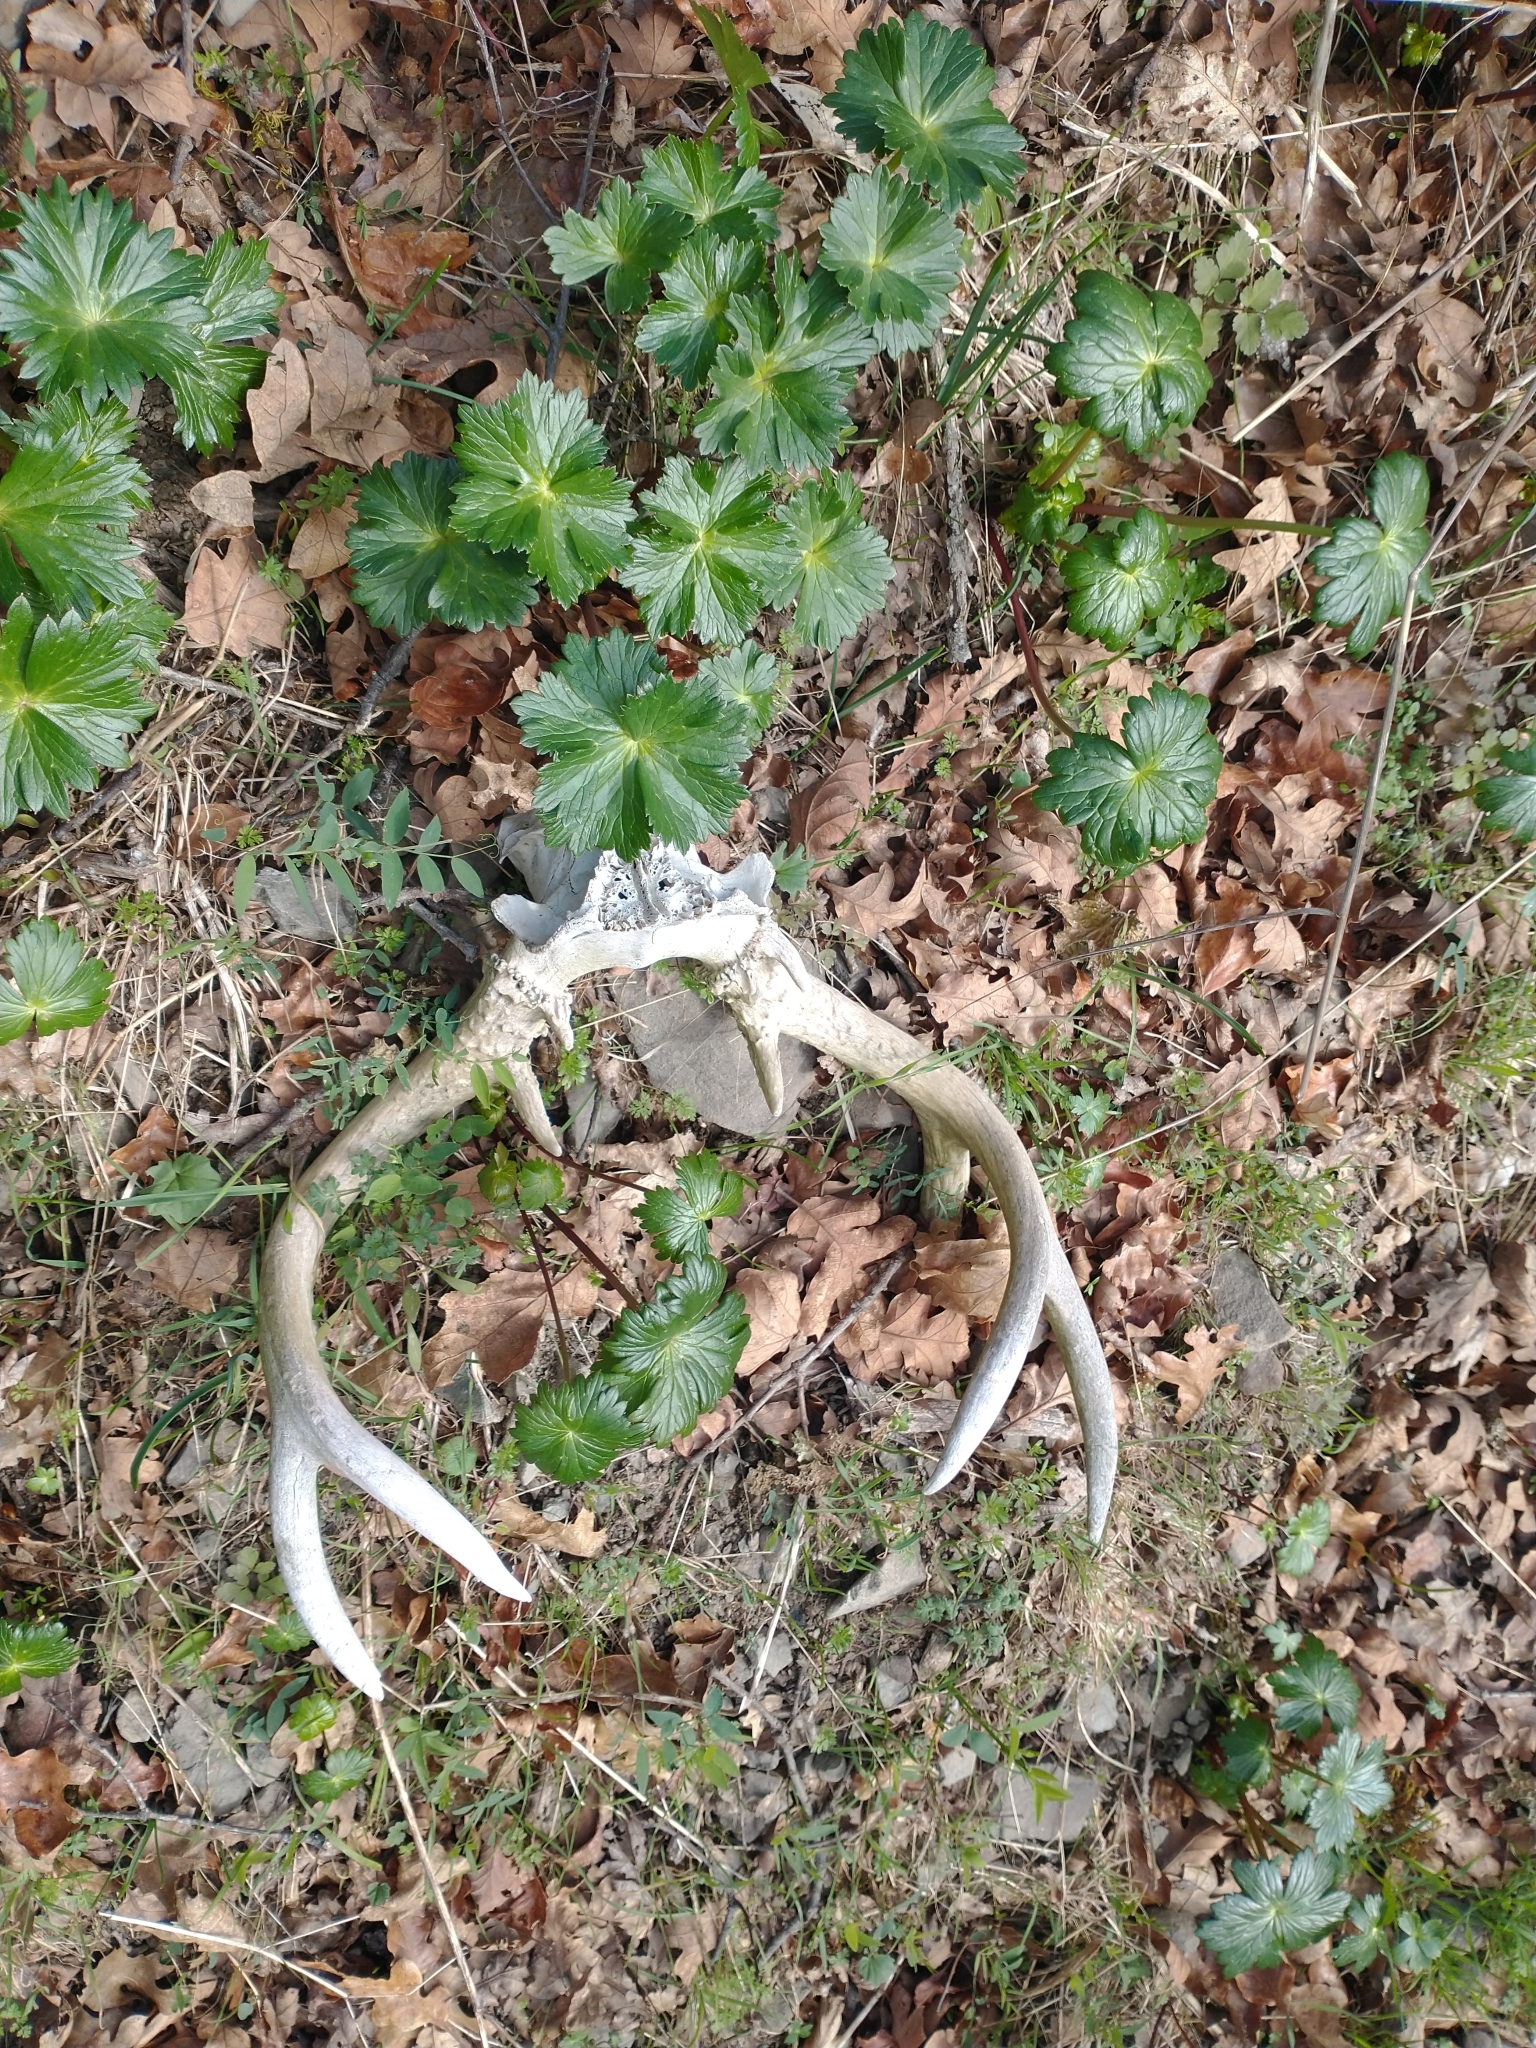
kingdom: Animalia
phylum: Chordata
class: Mammalia
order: Artiodactyla
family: Cervidae
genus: Odocoileus
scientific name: Odocoileus hemionus
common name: Mule deer
